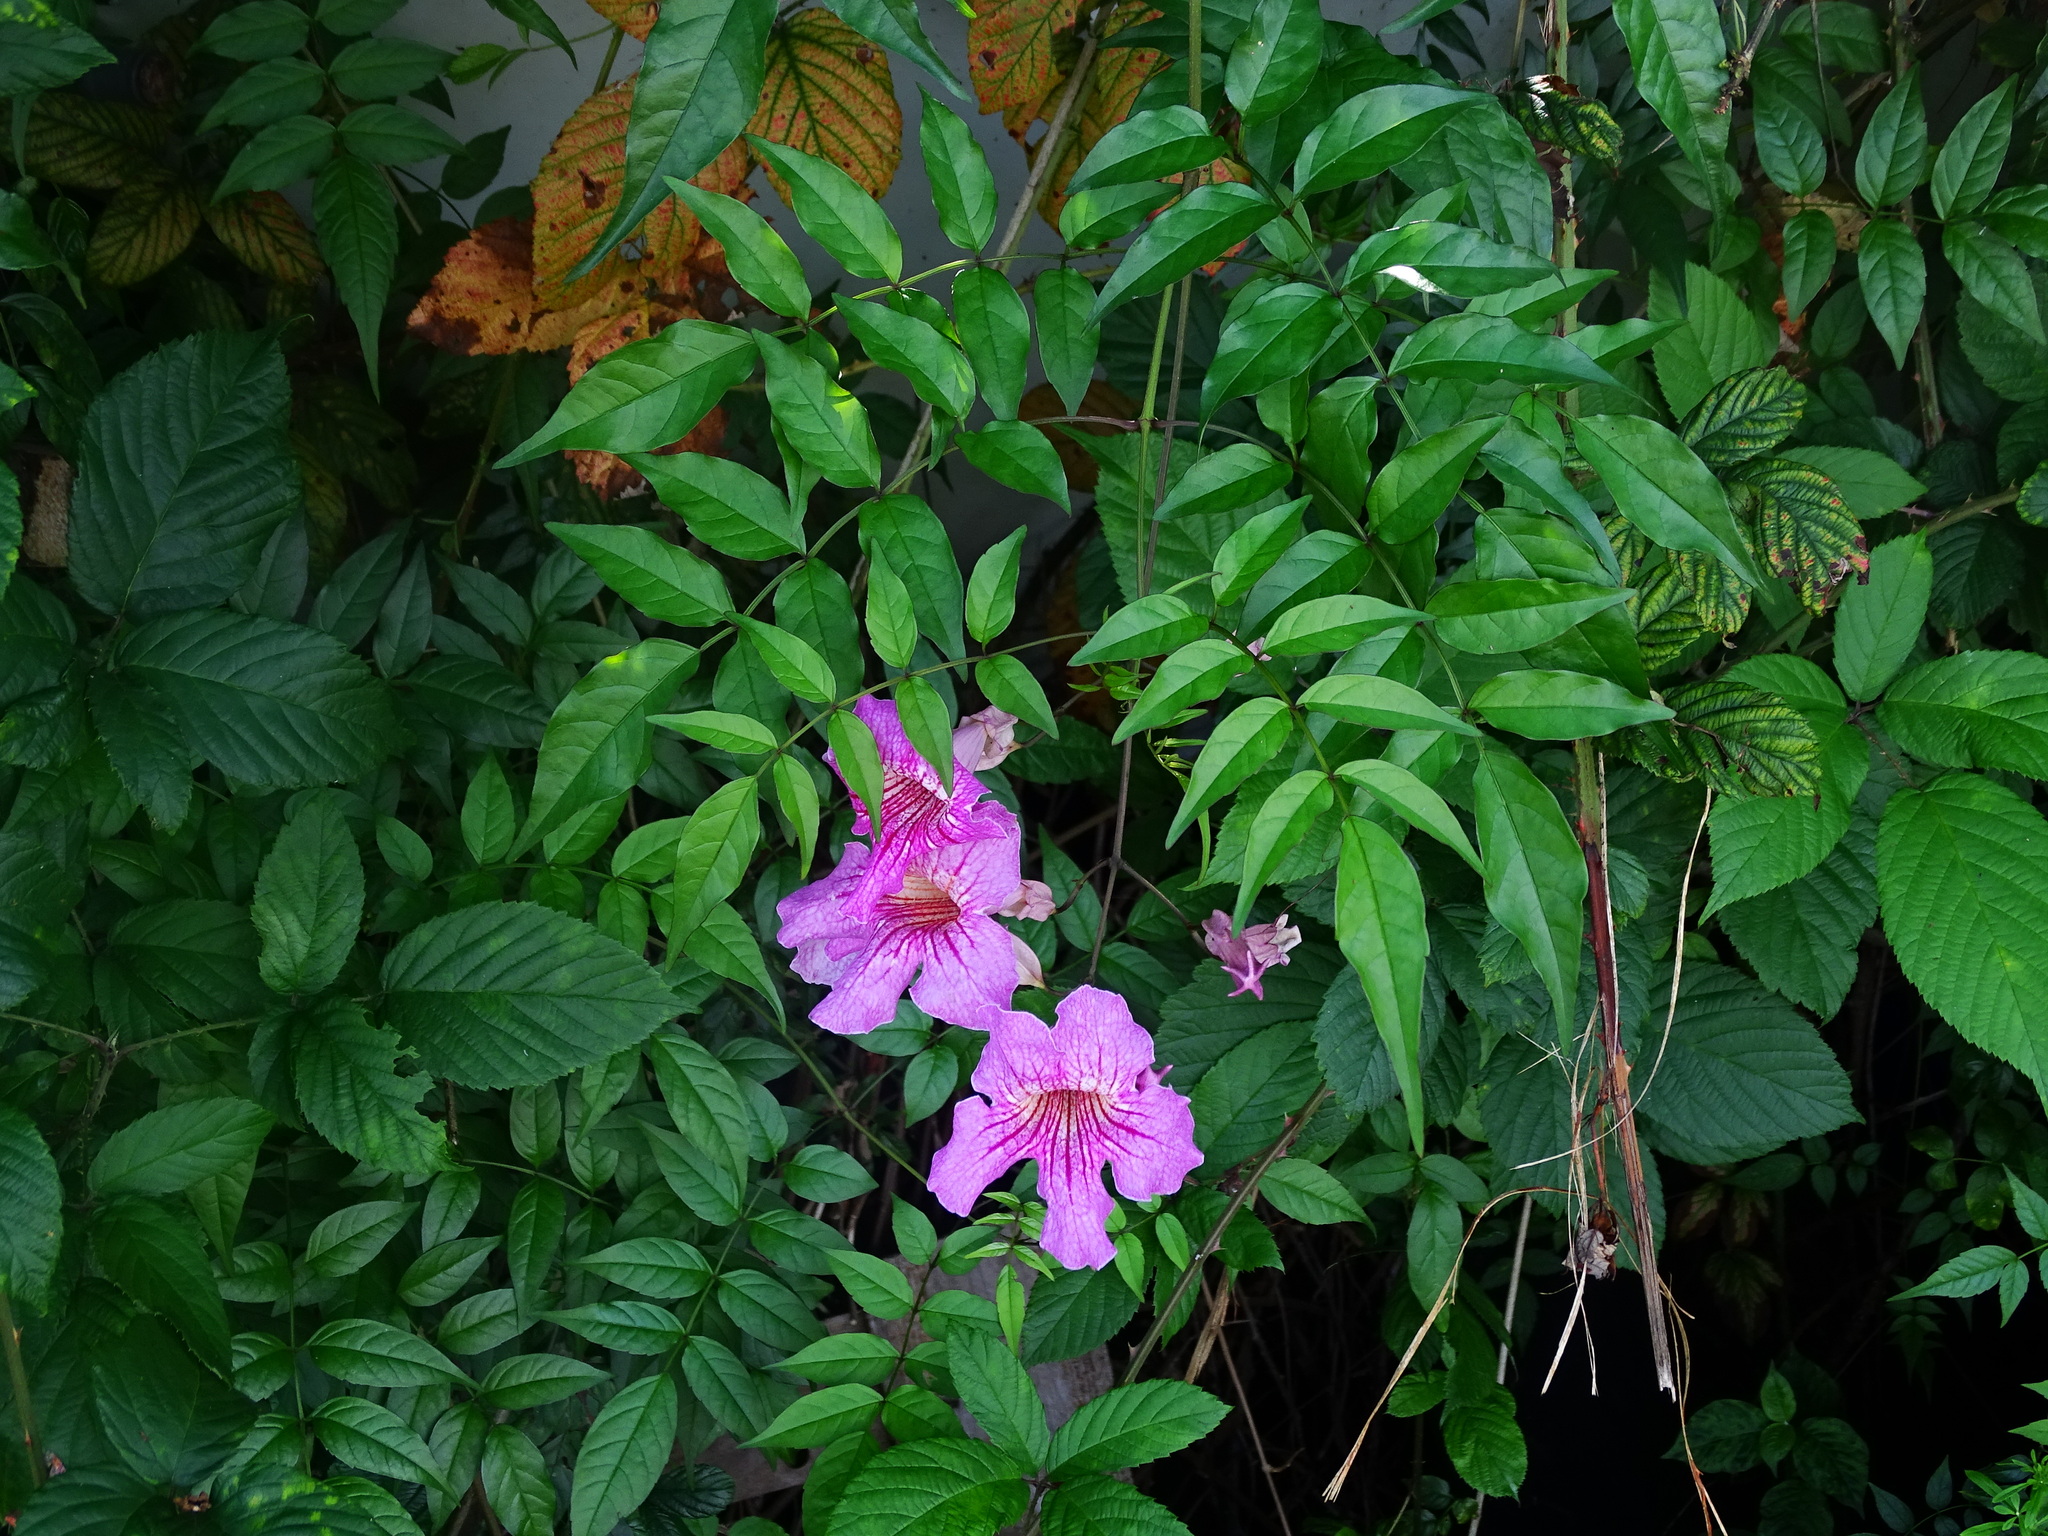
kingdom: Plantae
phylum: Tracheophyta
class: Magnoliopsida
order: Lamiales
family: Bignoniaceae
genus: Podranea
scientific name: Podranea ricasoliana
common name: Zimbabwe creeper
